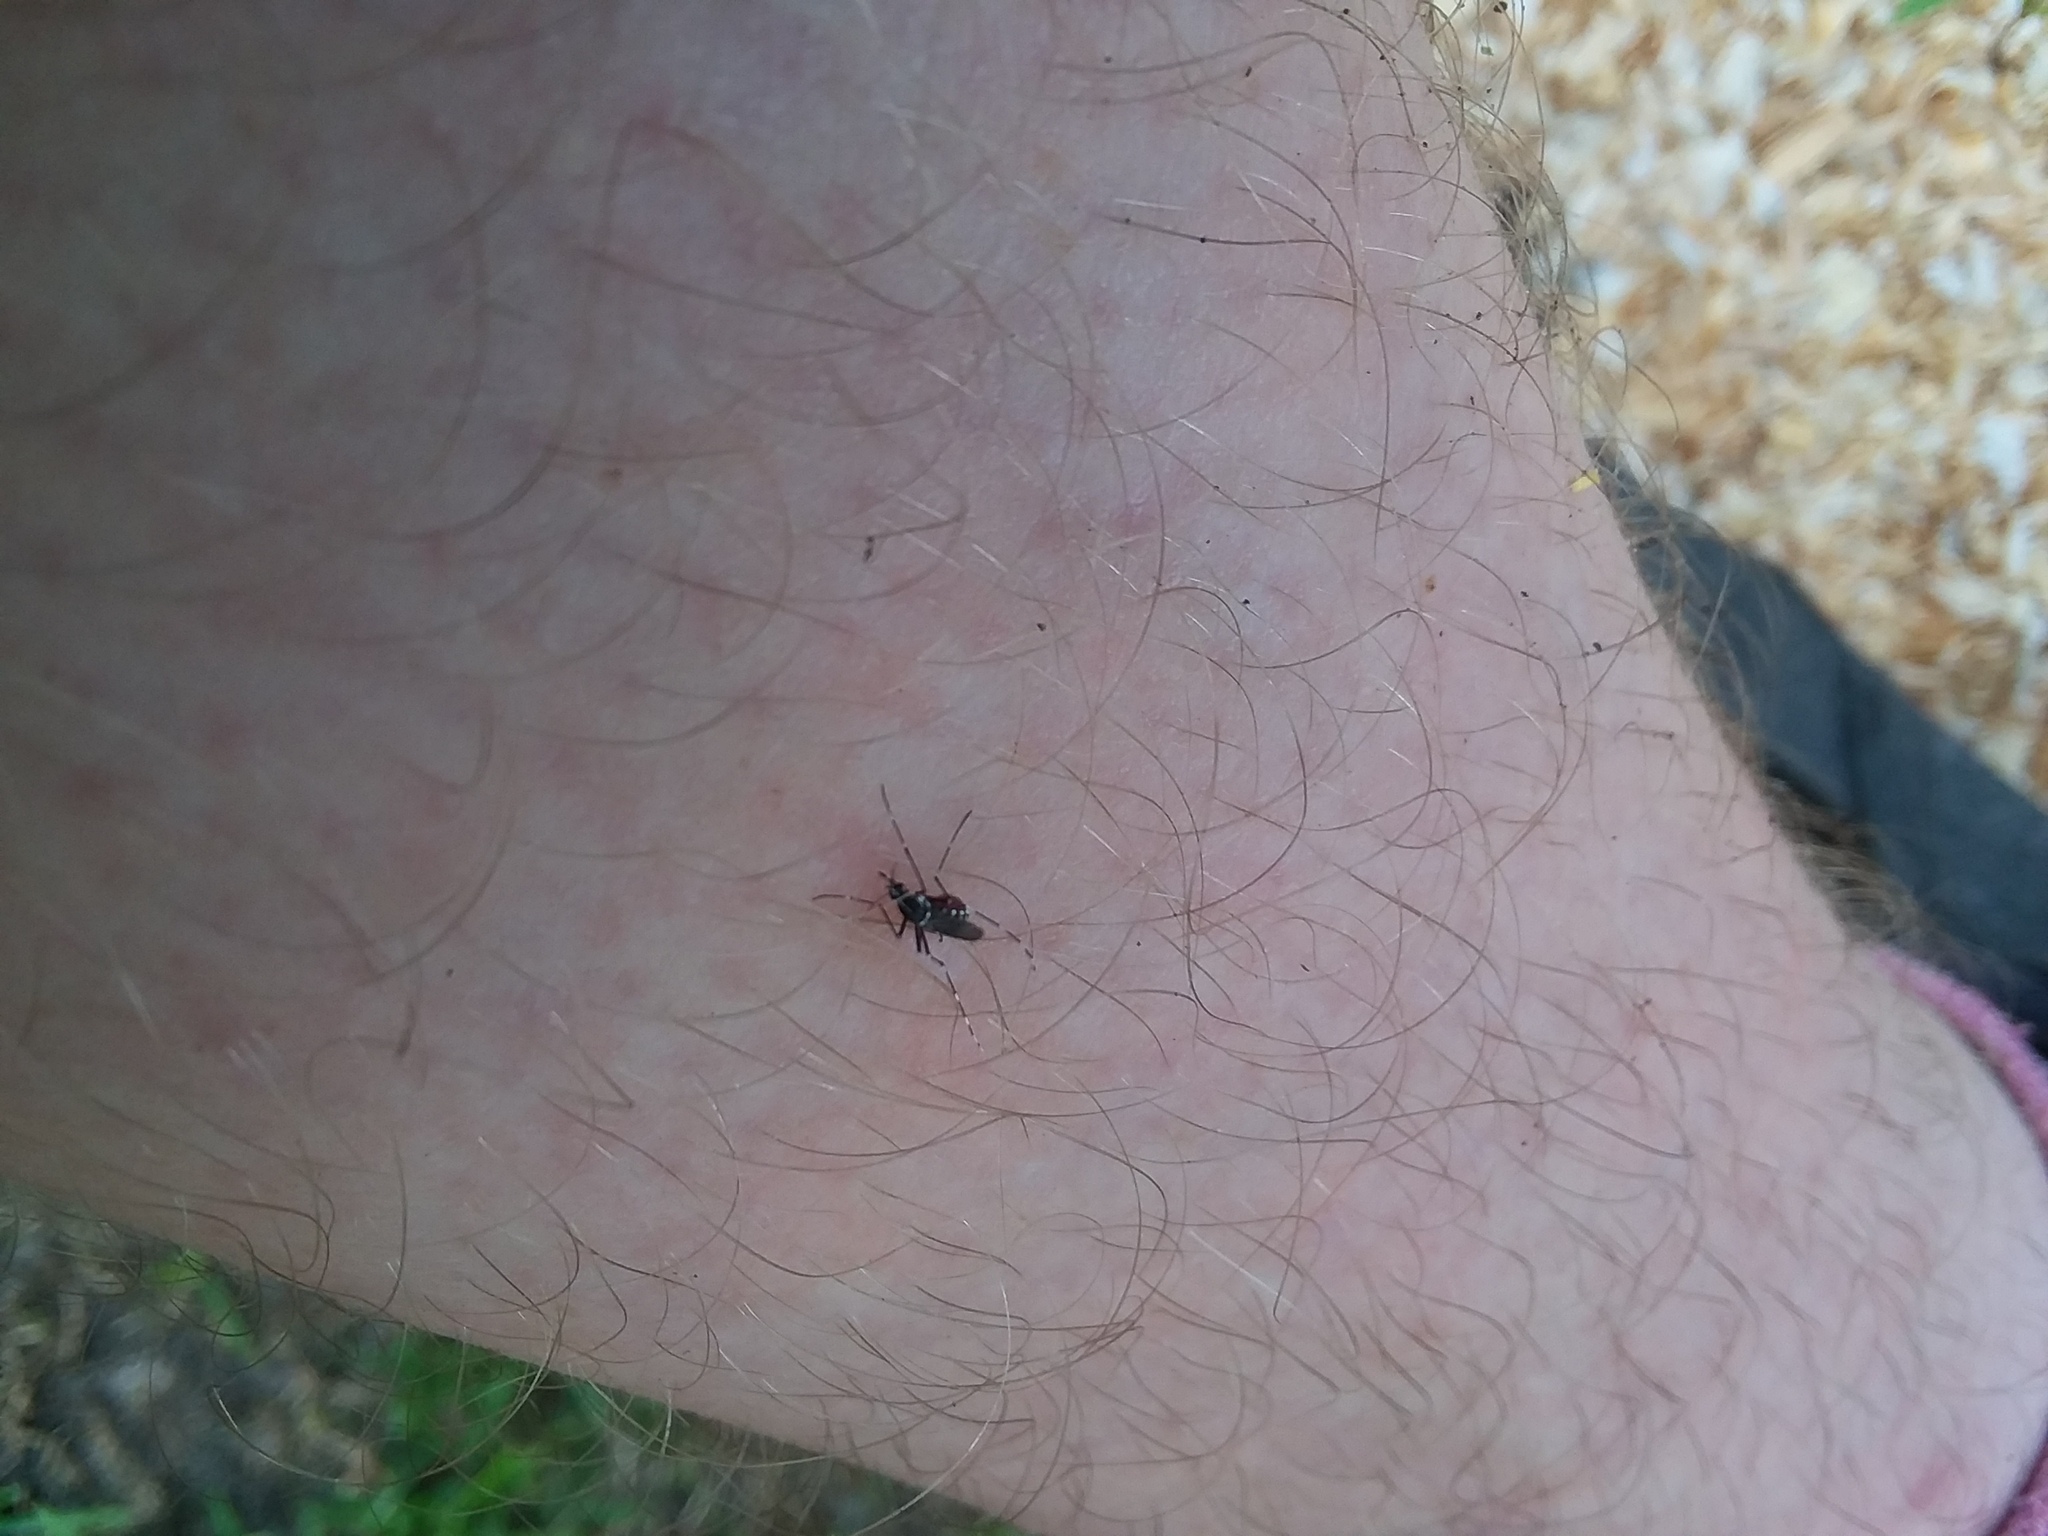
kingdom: Animalia
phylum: Arthropoda
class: Insecta
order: Diptera
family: Culicidae
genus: Aedes
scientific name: Aedes albopictus
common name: Tiger mosquito
